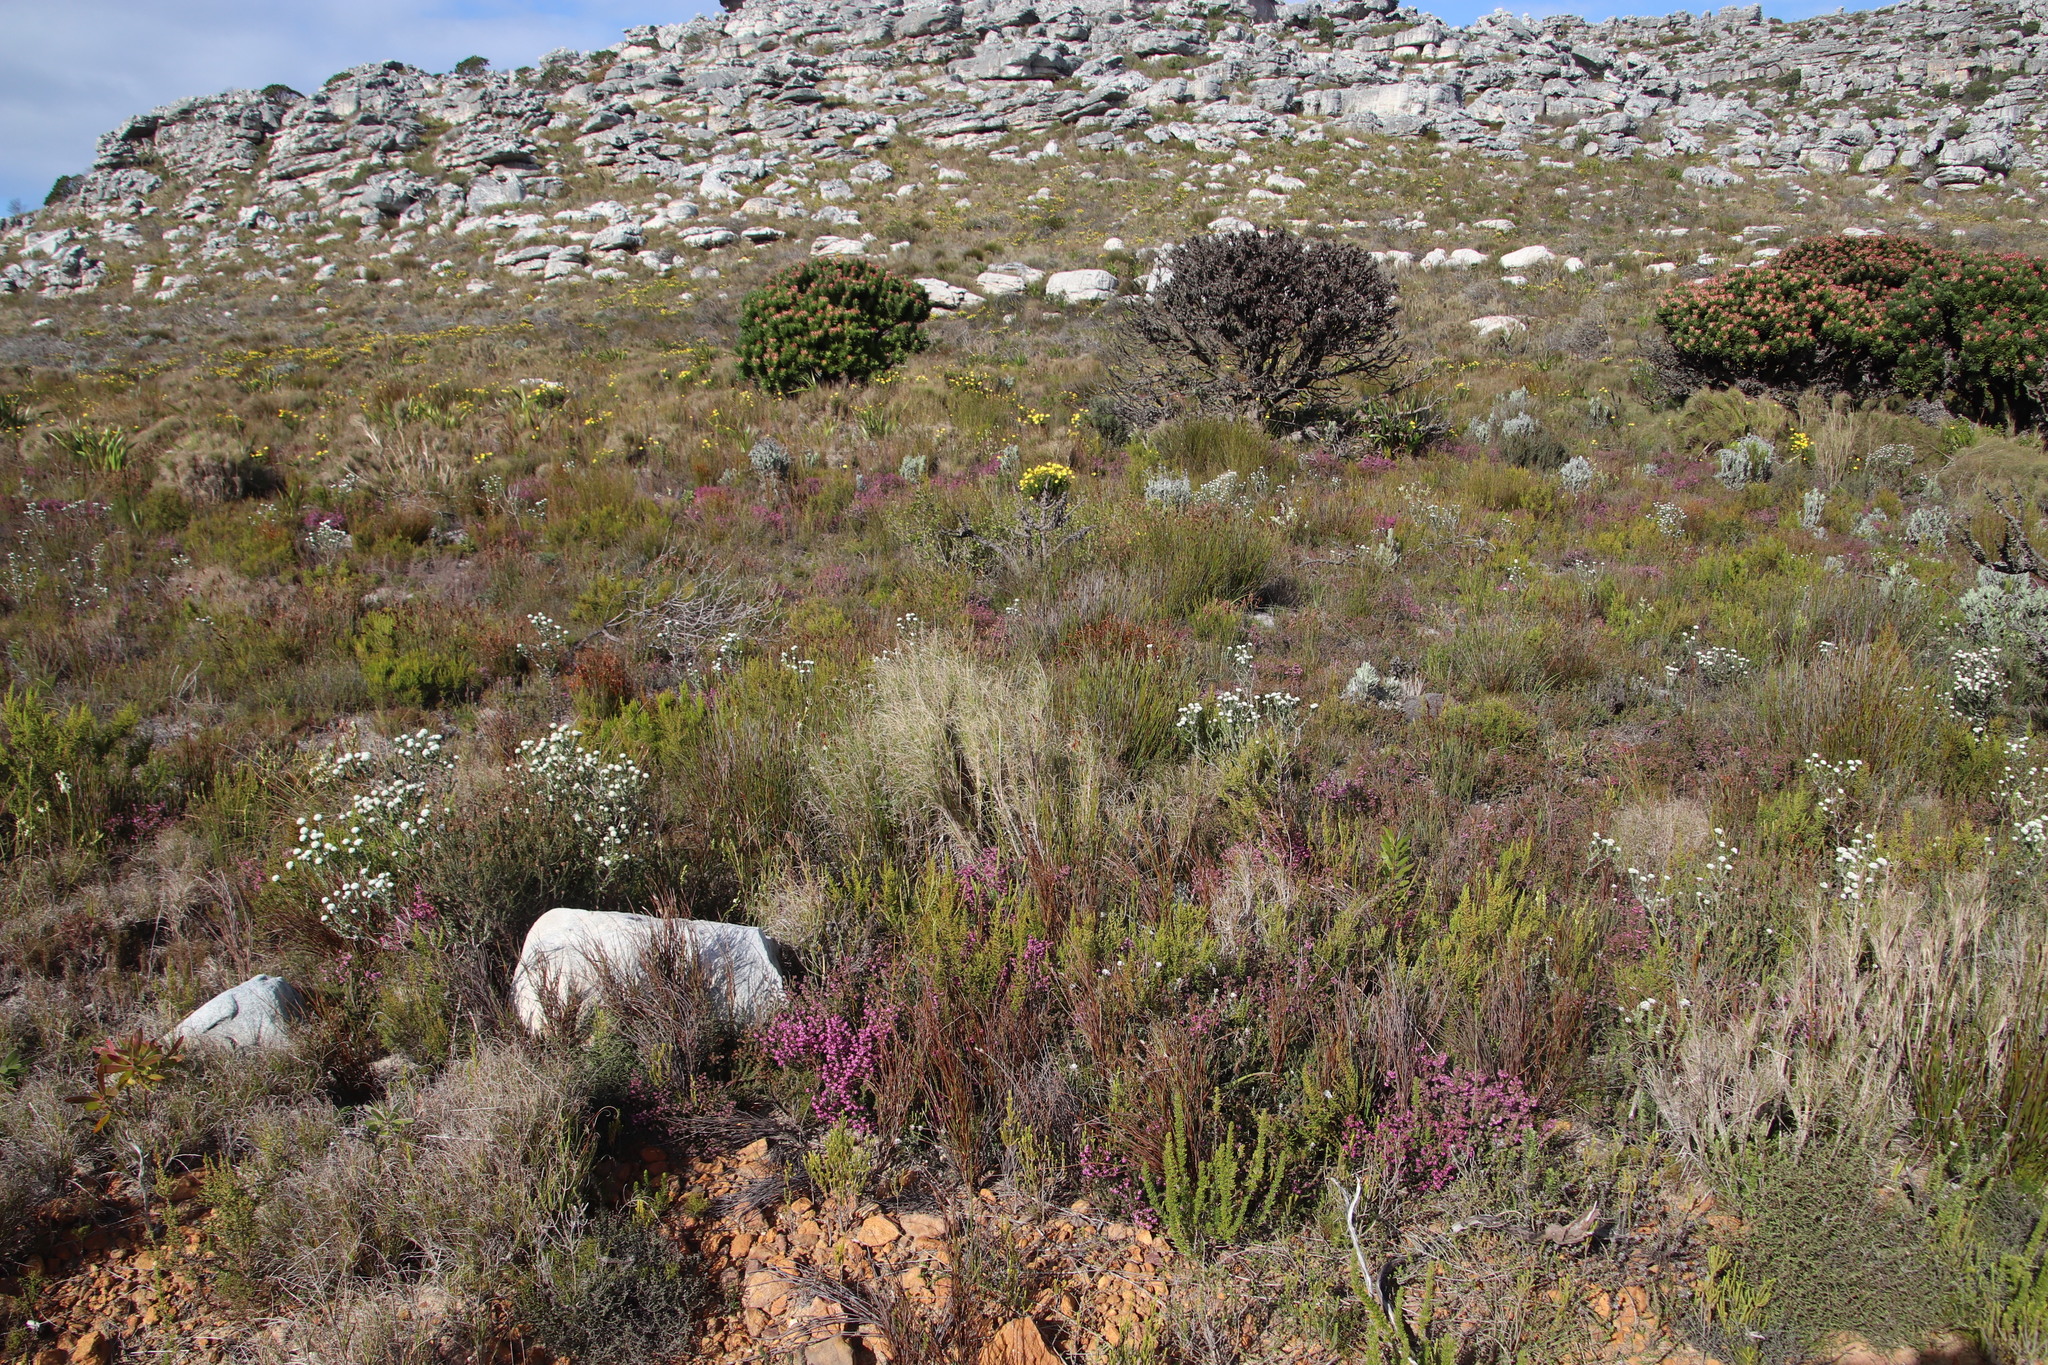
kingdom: Plantae
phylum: Tracheophyta
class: Magnoliopsida
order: Ericales
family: Ericaceae
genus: Erica
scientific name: Erica glabella
